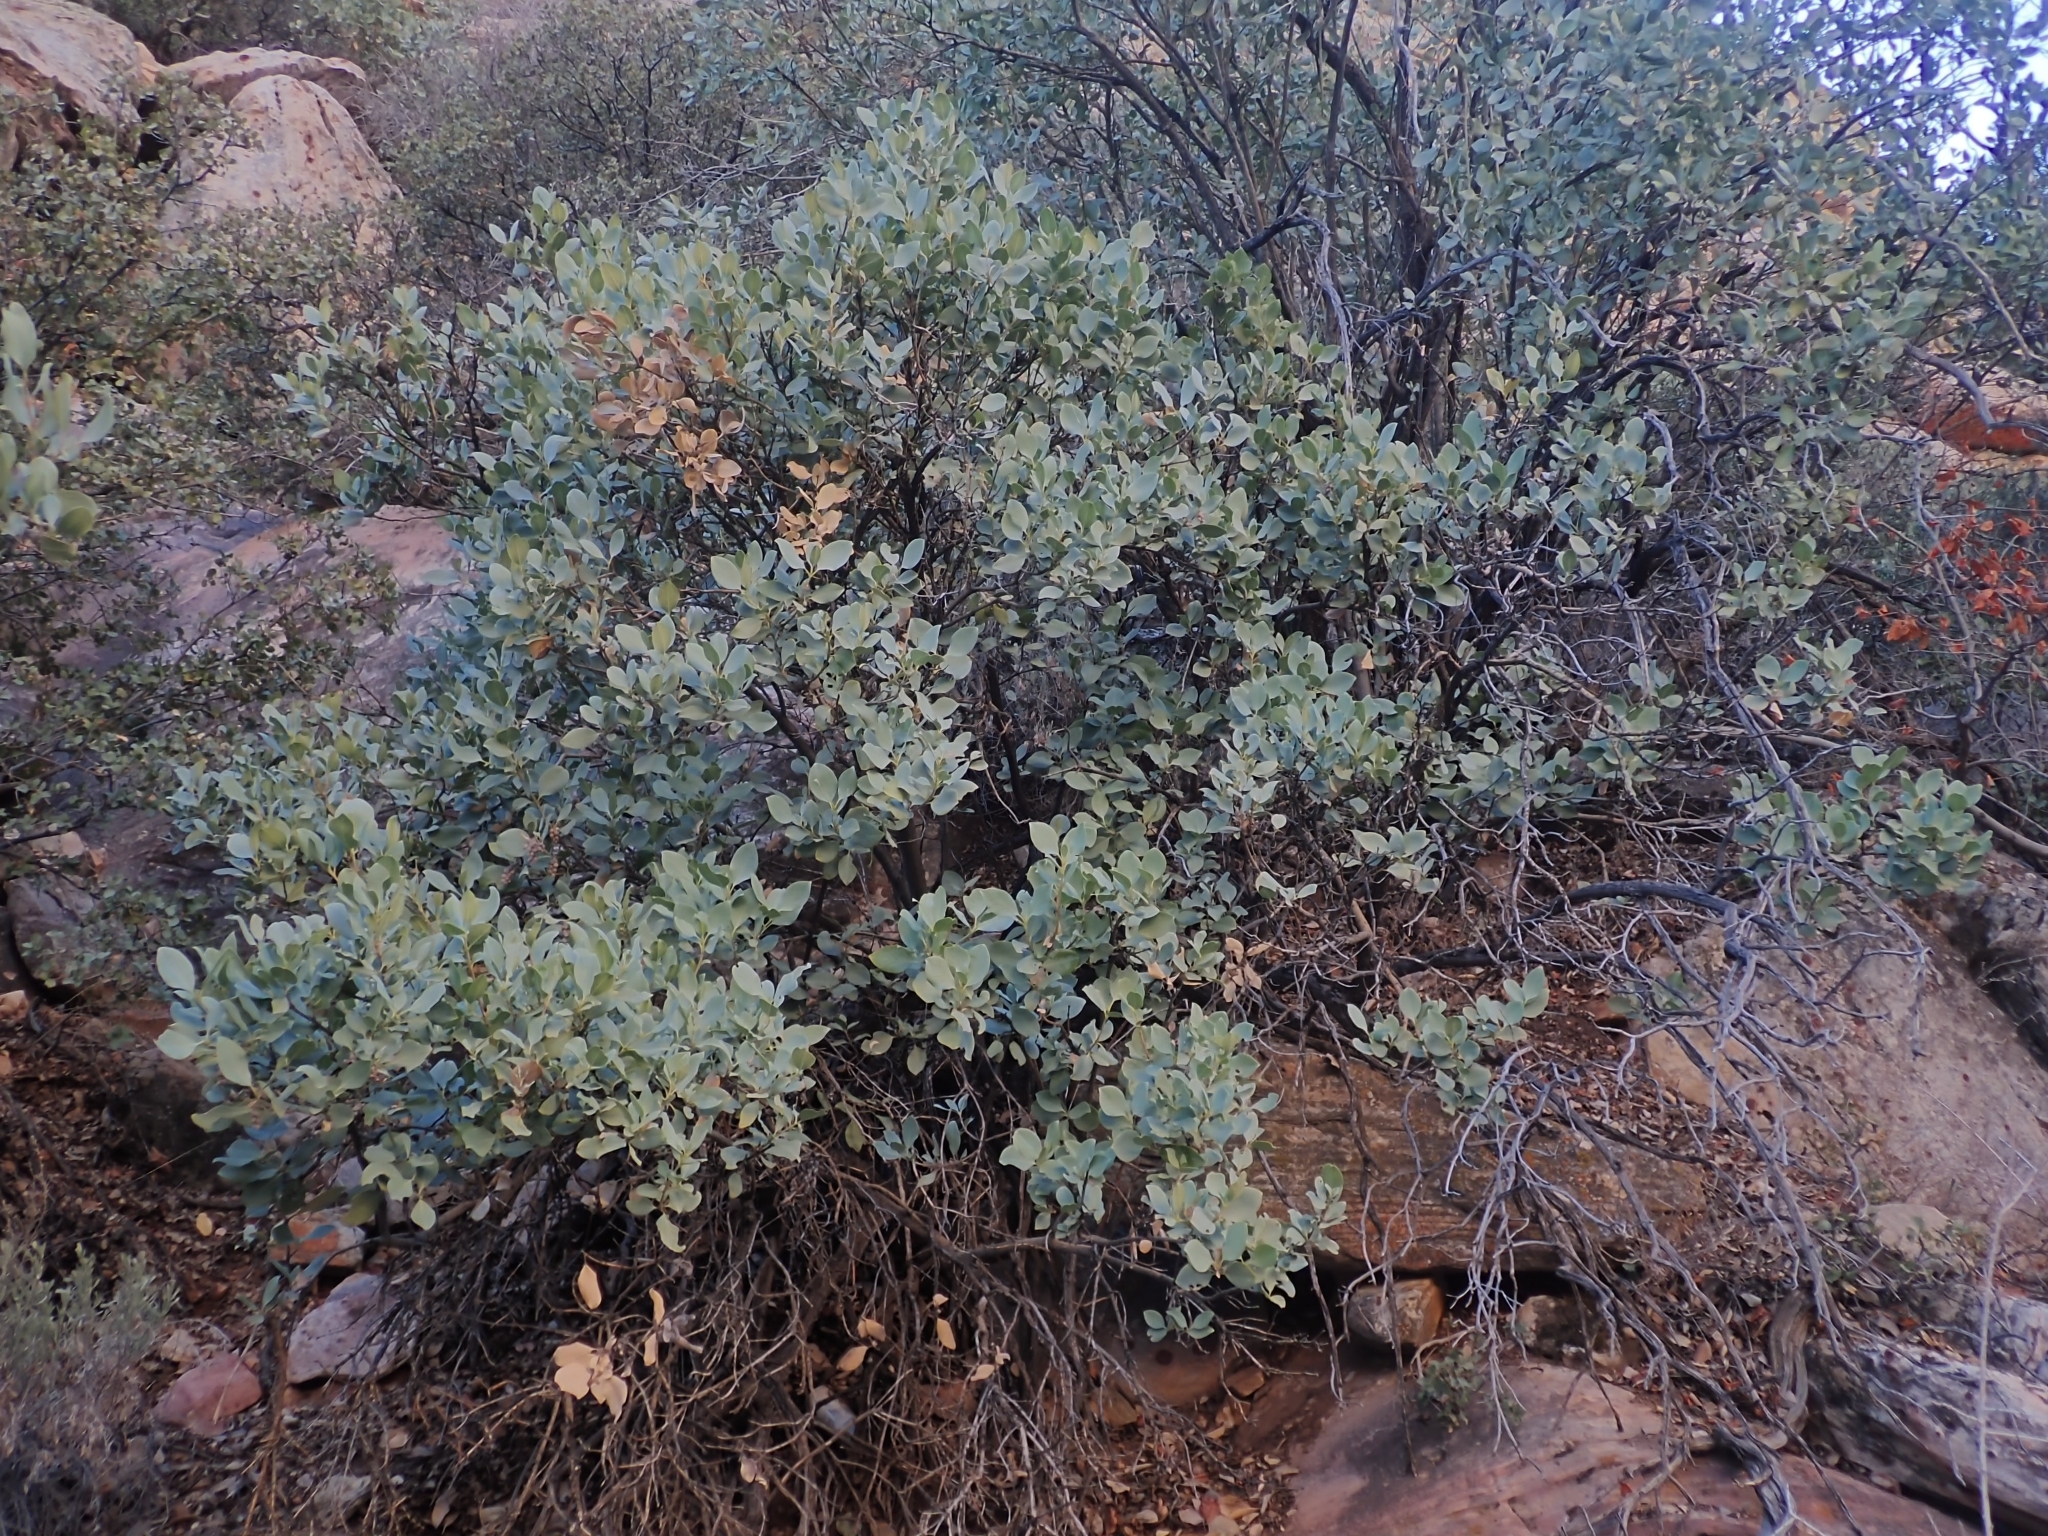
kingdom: Plantae
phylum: Tracheophyta
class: Magnoliopsida
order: Garryales
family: Garryaceae
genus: Garrya
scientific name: Garrya flavescens
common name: Ashy silk-tassel
